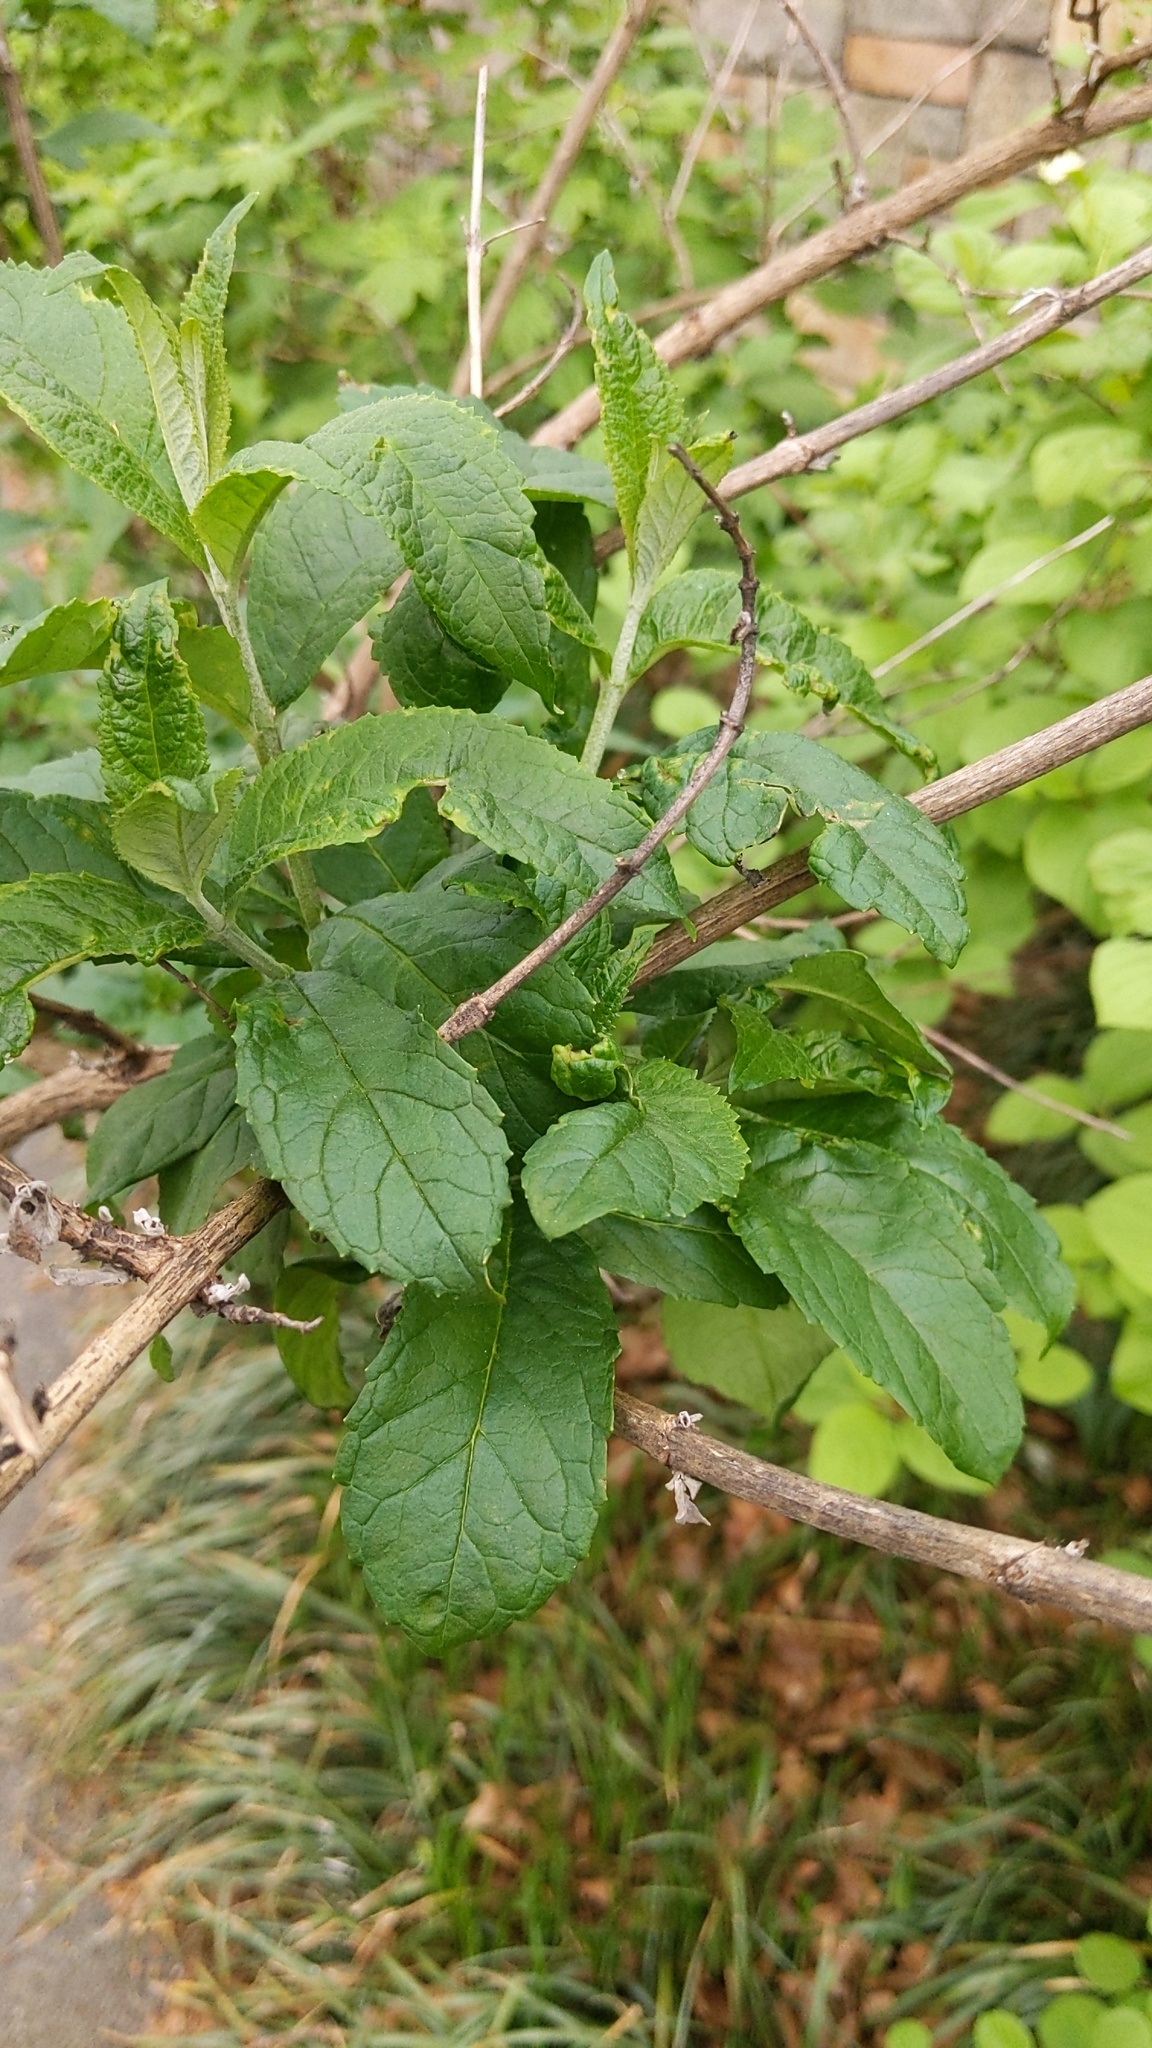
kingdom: Plantae
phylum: Tracheophyta
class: Magnoliopsida
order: Lamiales
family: Scrophulariaceae
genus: Buddleja
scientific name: Buddleja davidii
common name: Butterfly-bush
